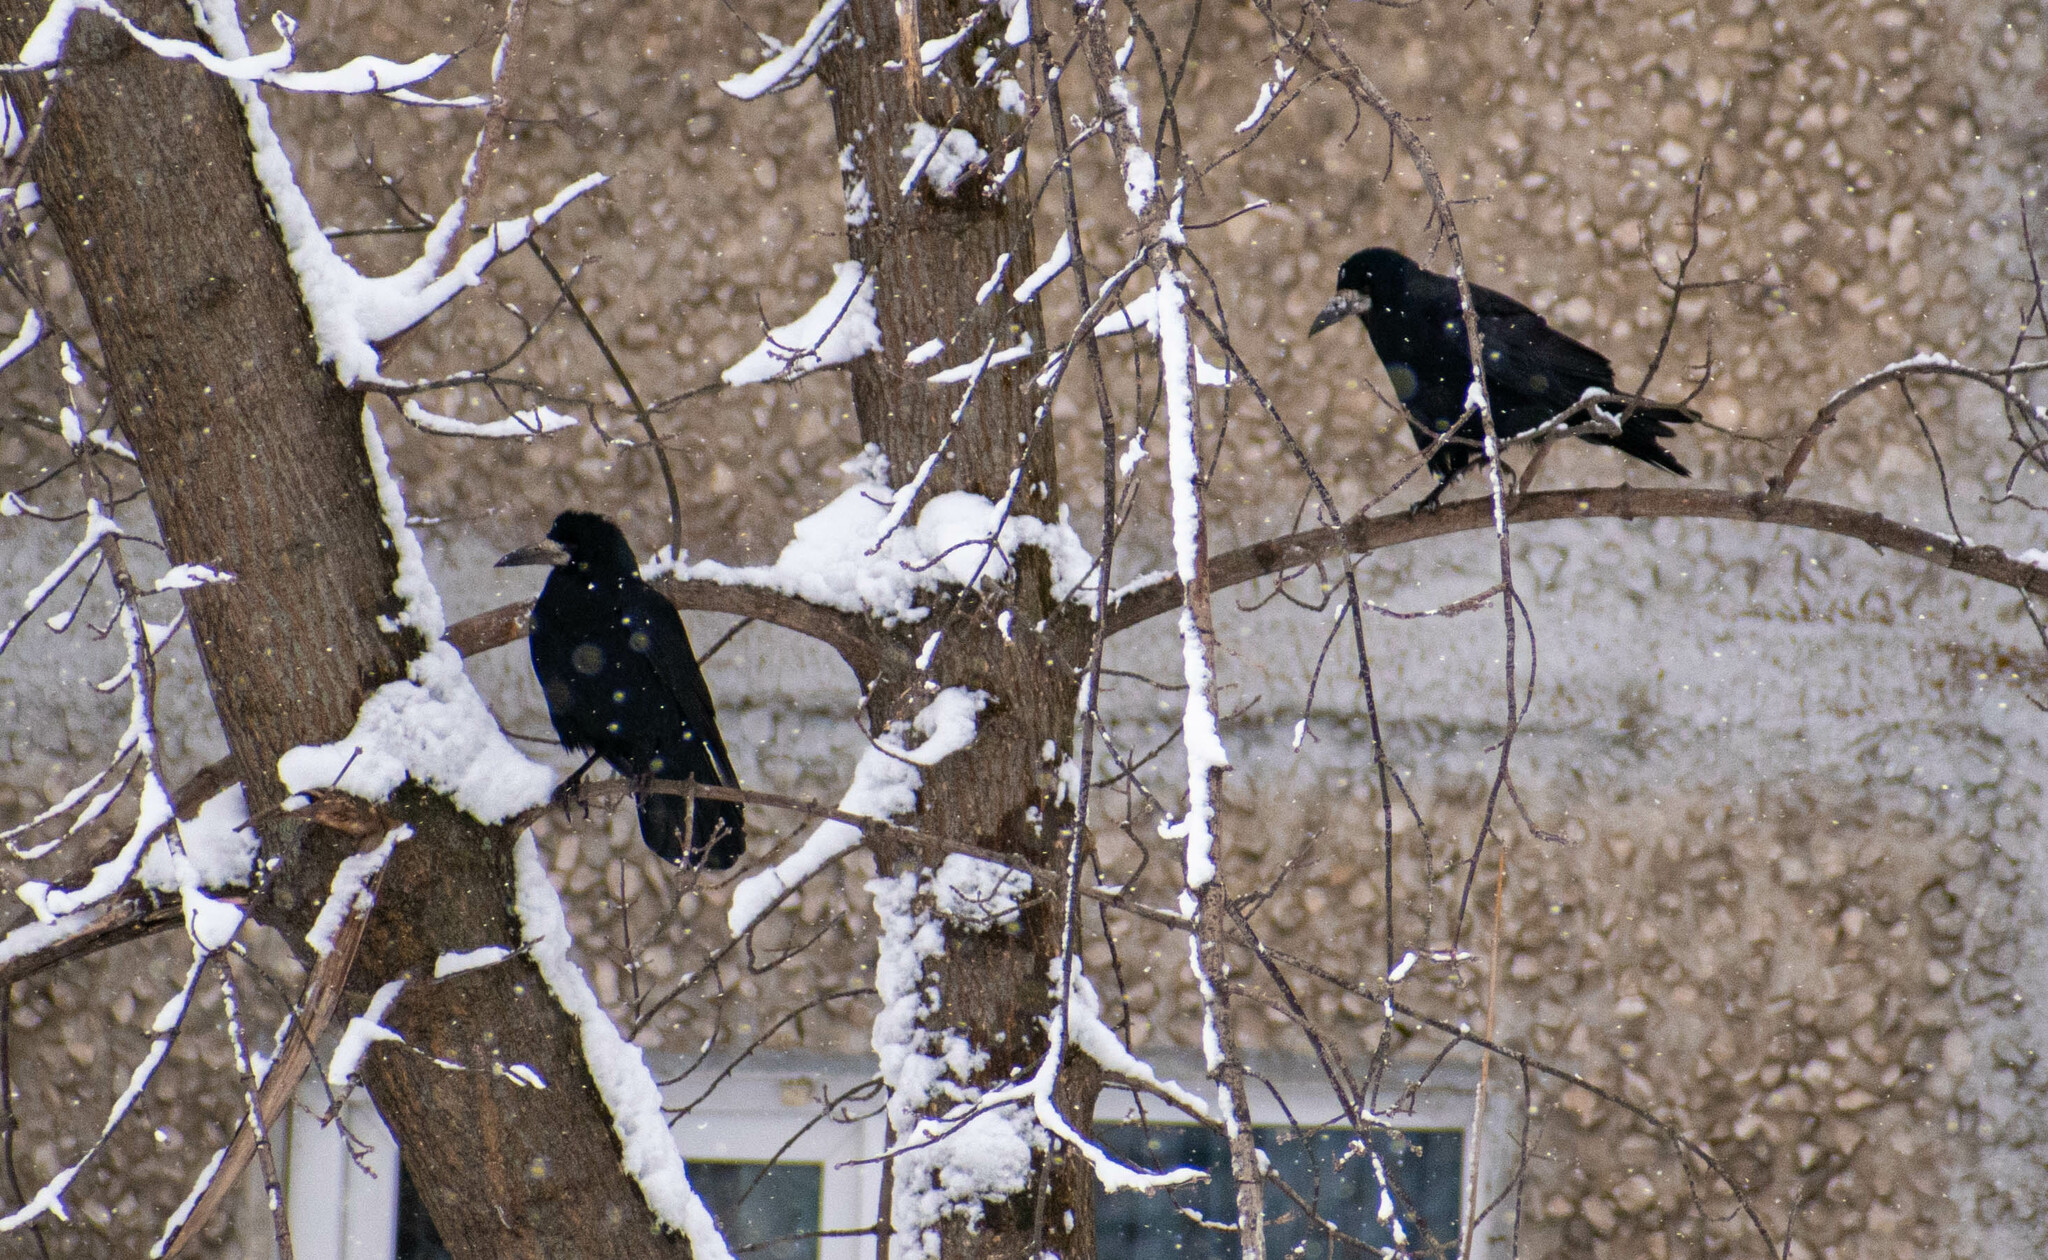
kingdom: Animalia
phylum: Chordata
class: Aves
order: Passeriformes
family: Corvidae
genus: Corvus
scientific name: Corvus frugilegus
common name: Rook
